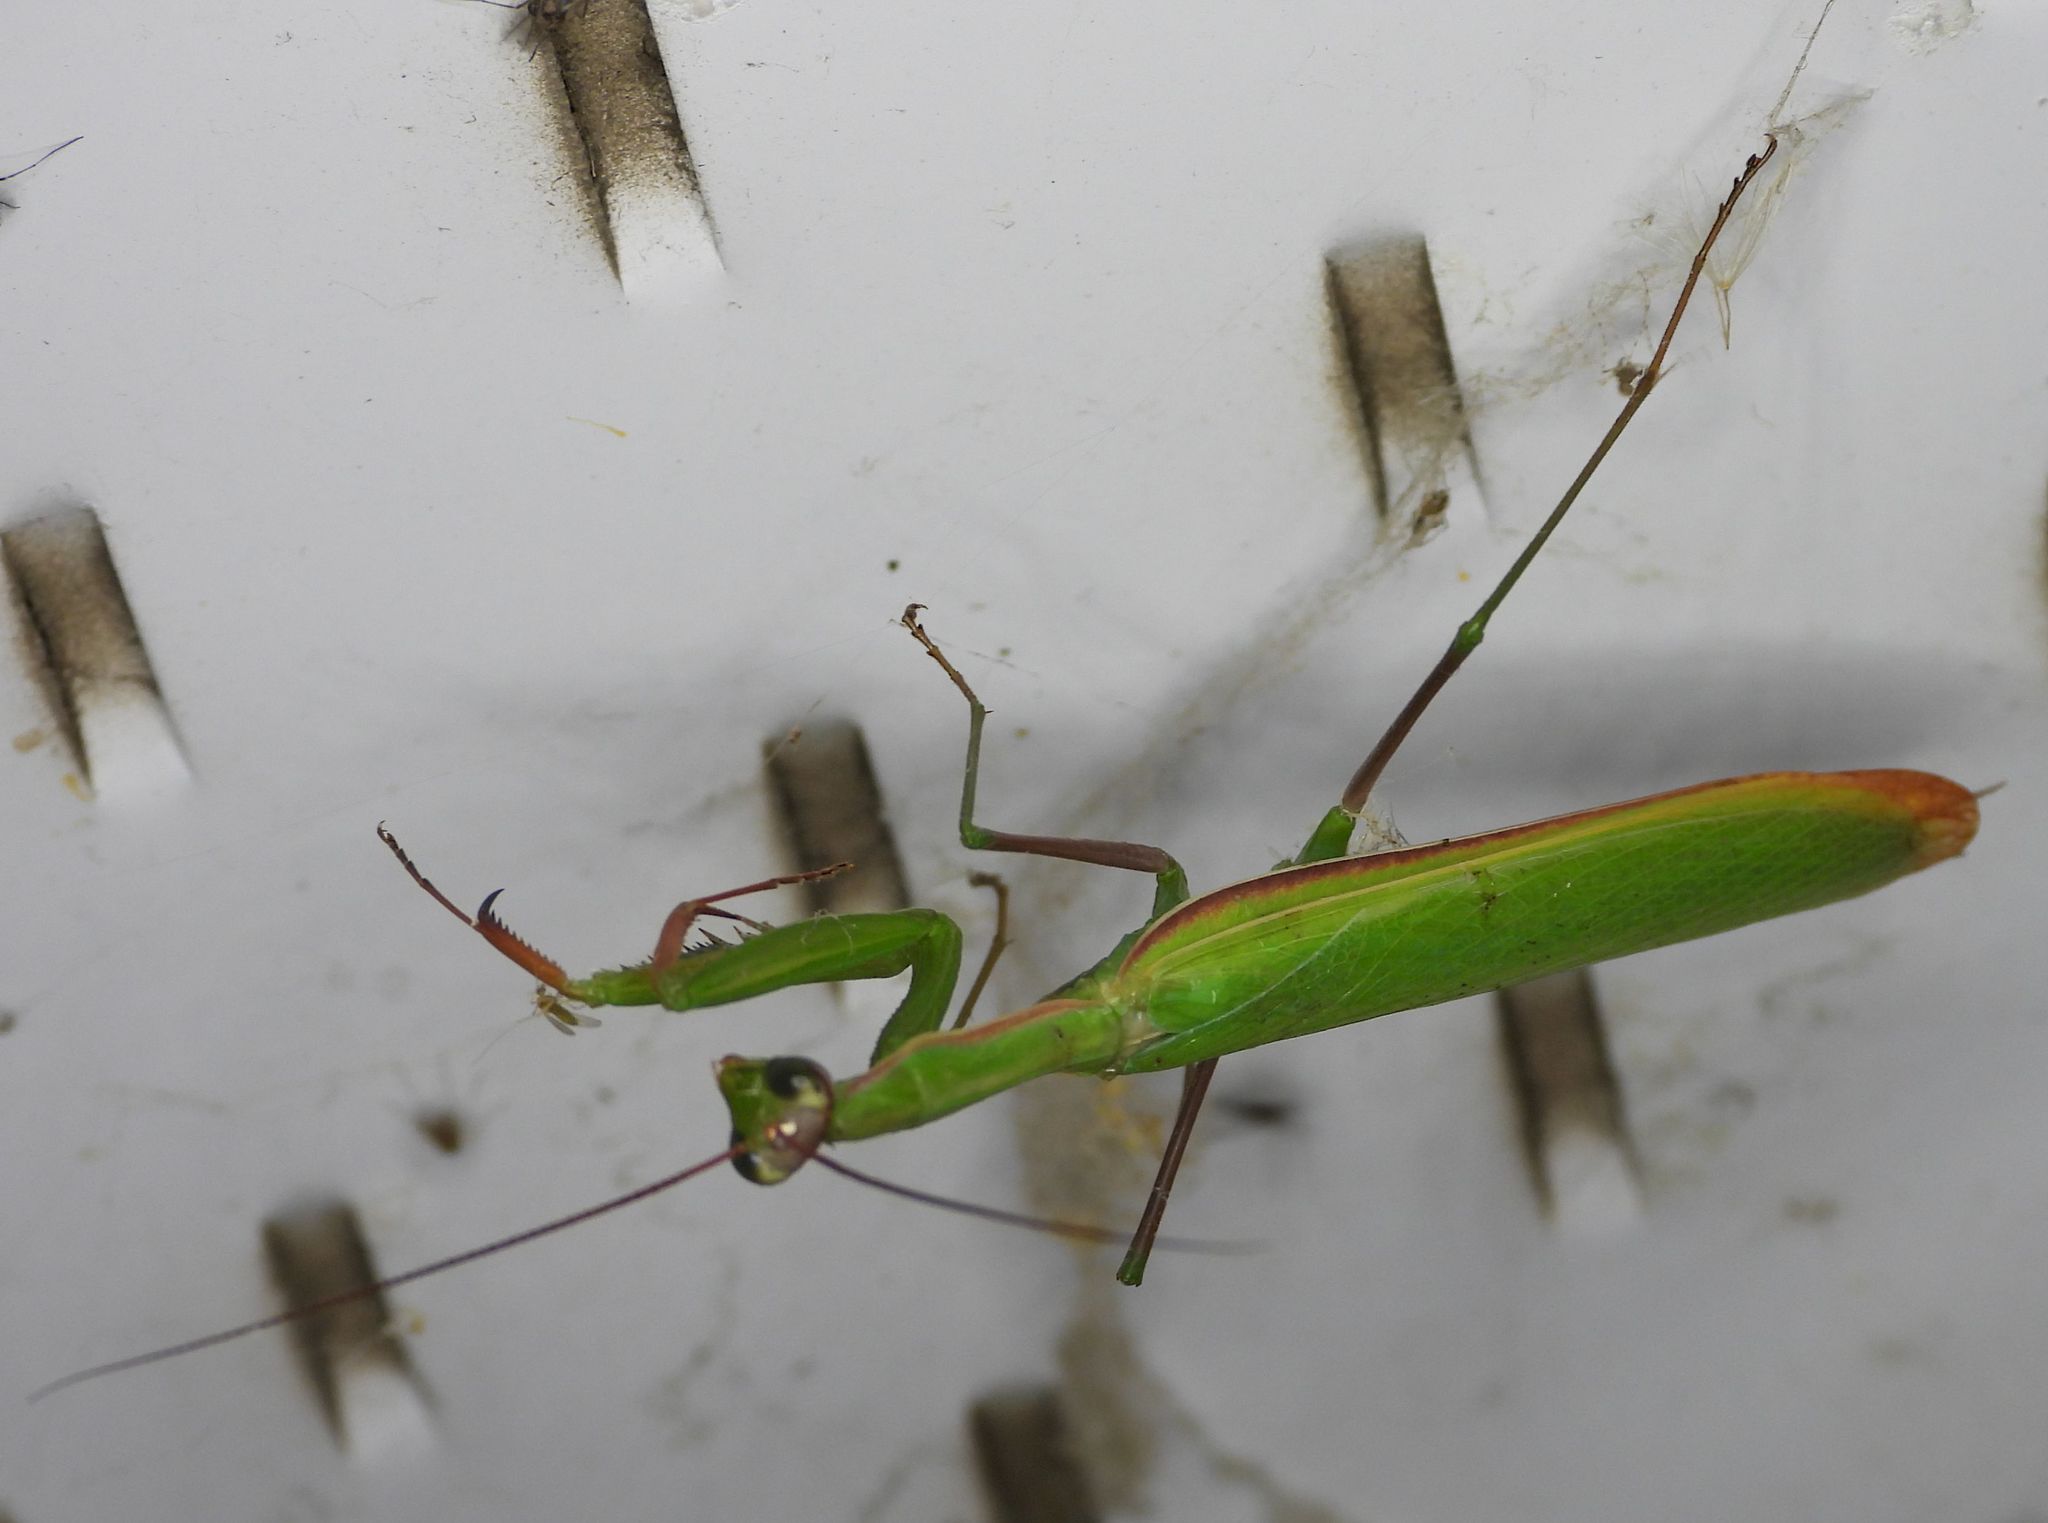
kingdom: Animalia
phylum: Arthropoda
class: Insecta
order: Mantodea
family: Mantidae
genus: Mantis
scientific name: Mantis religiosa
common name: Praying mantis
